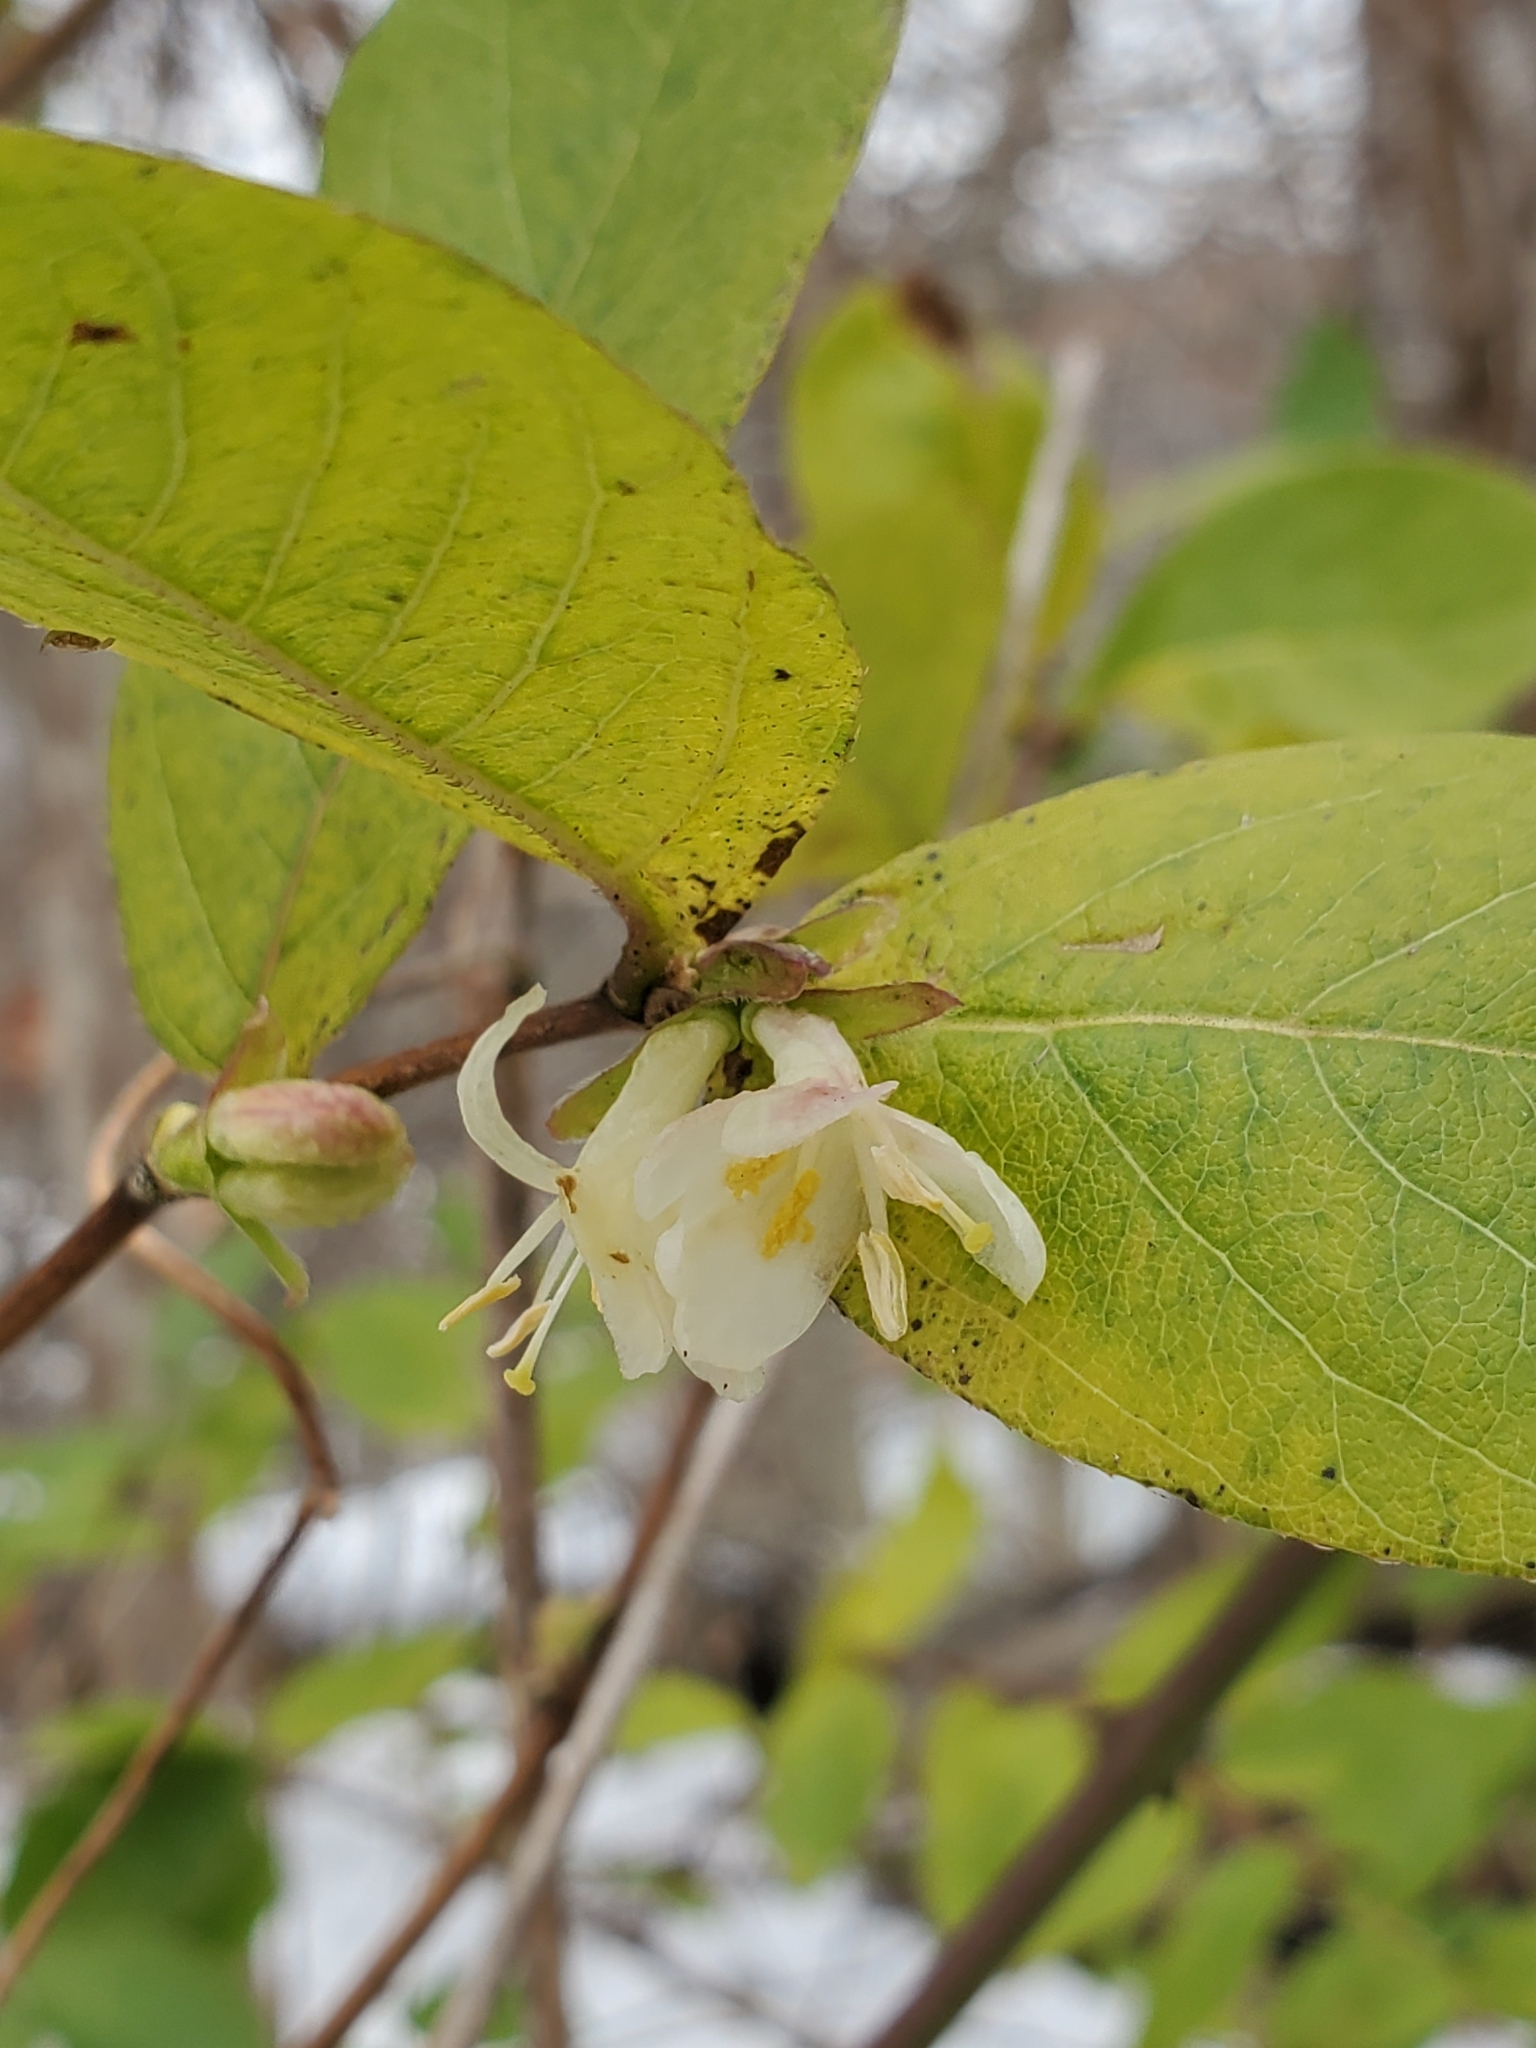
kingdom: Plantae
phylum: Tracheophyta
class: Magnoliopsida
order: Dipsacales
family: Caprifoliaceae
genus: Lonicera
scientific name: Lonicera fragrantissima
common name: Fragrant honeysuckle
